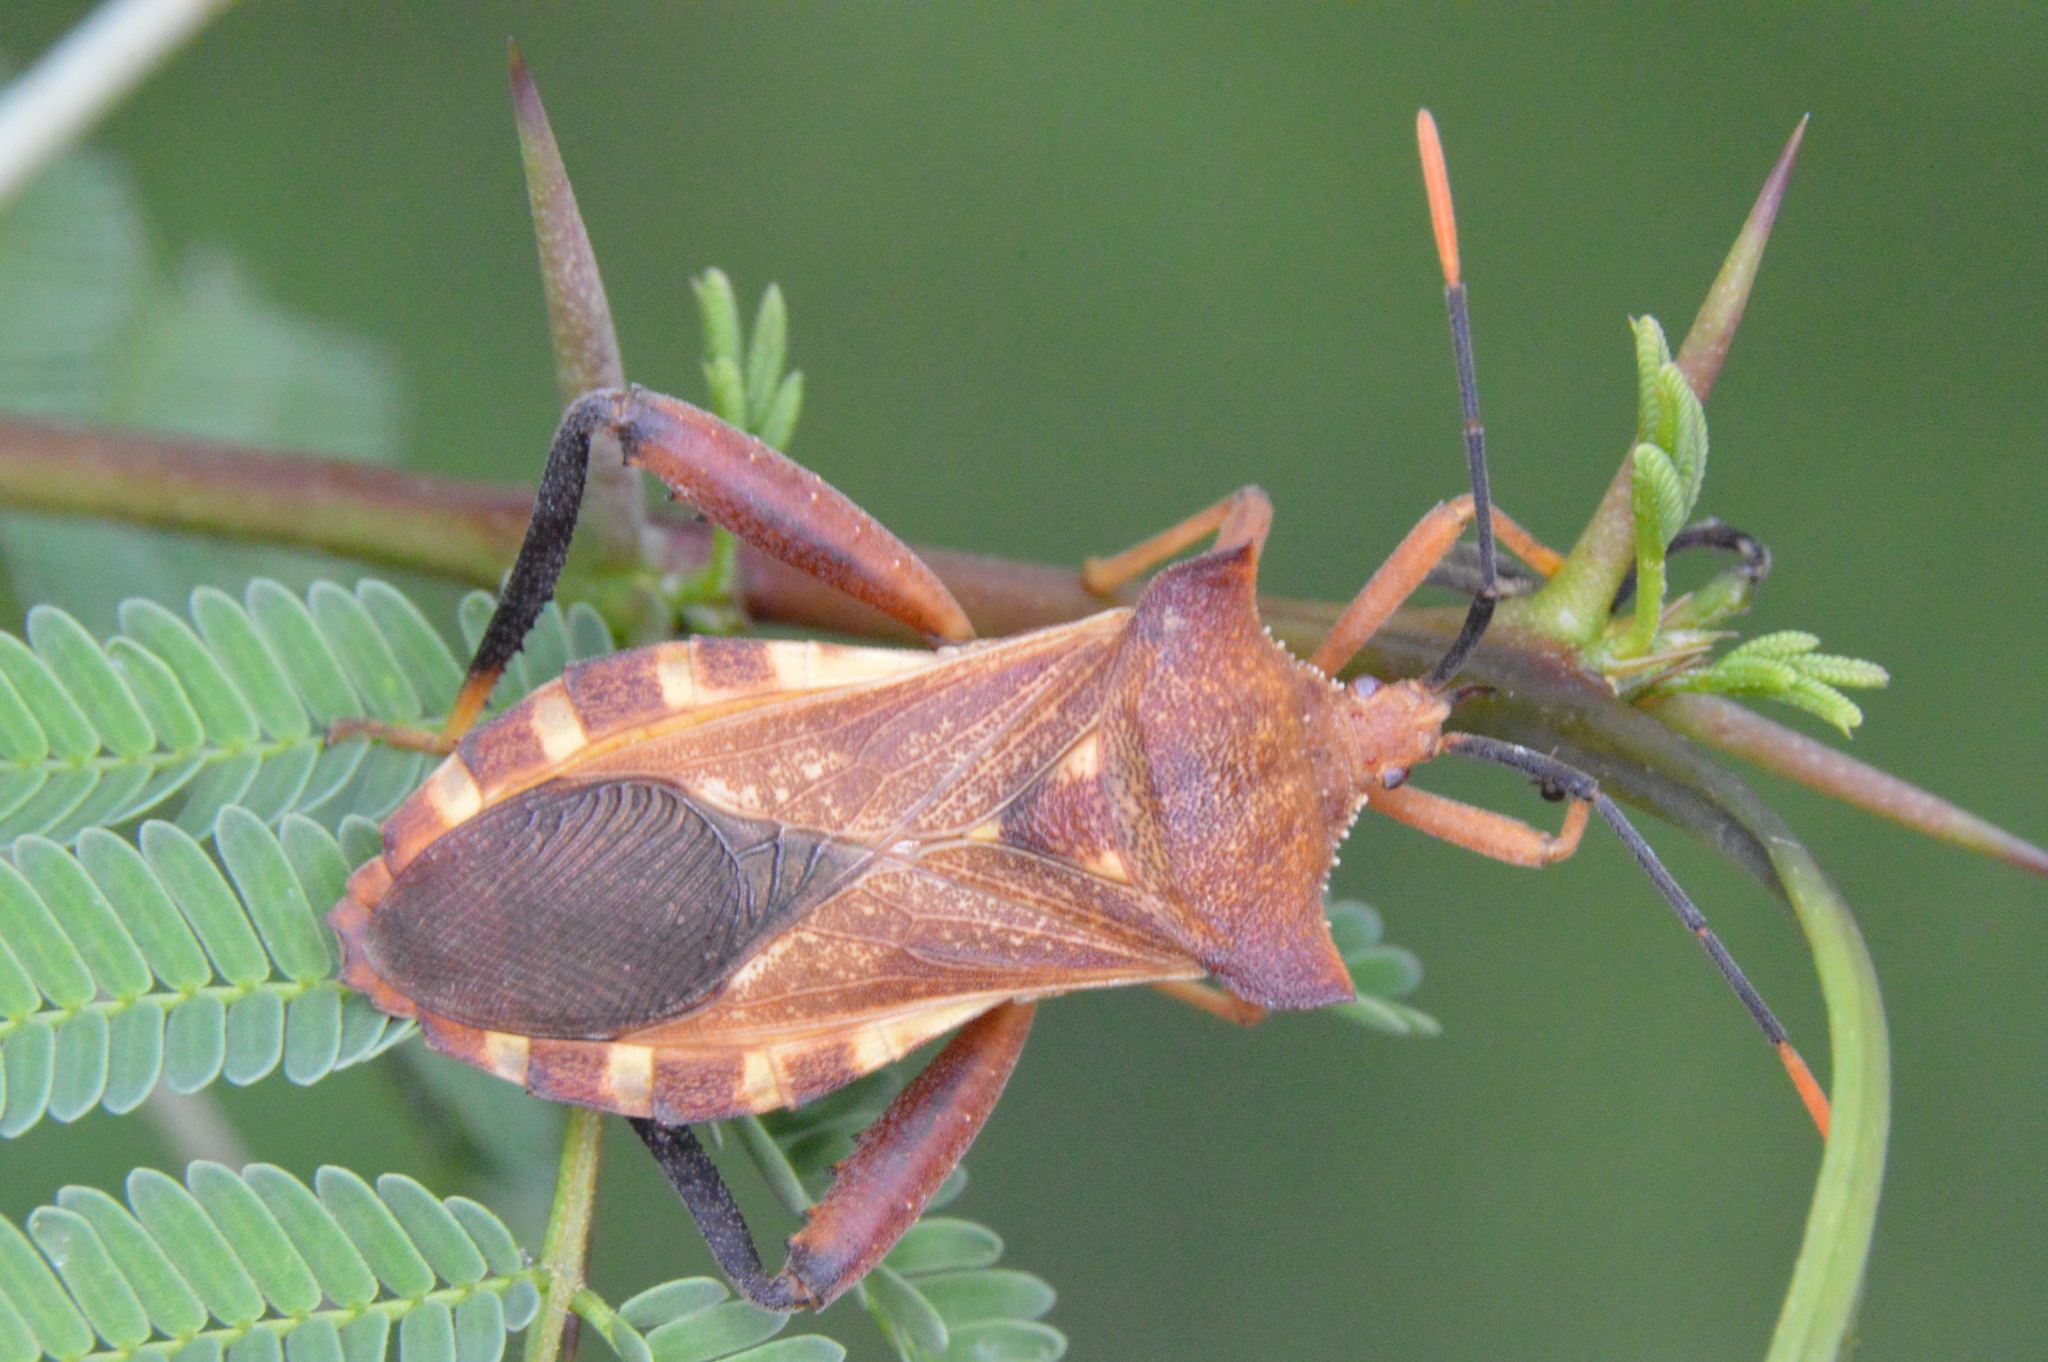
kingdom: Animalia
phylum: Arthropoda
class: Insecta
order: Hemiptera
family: Coreidae
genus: Mozena
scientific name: Mozena lunata
